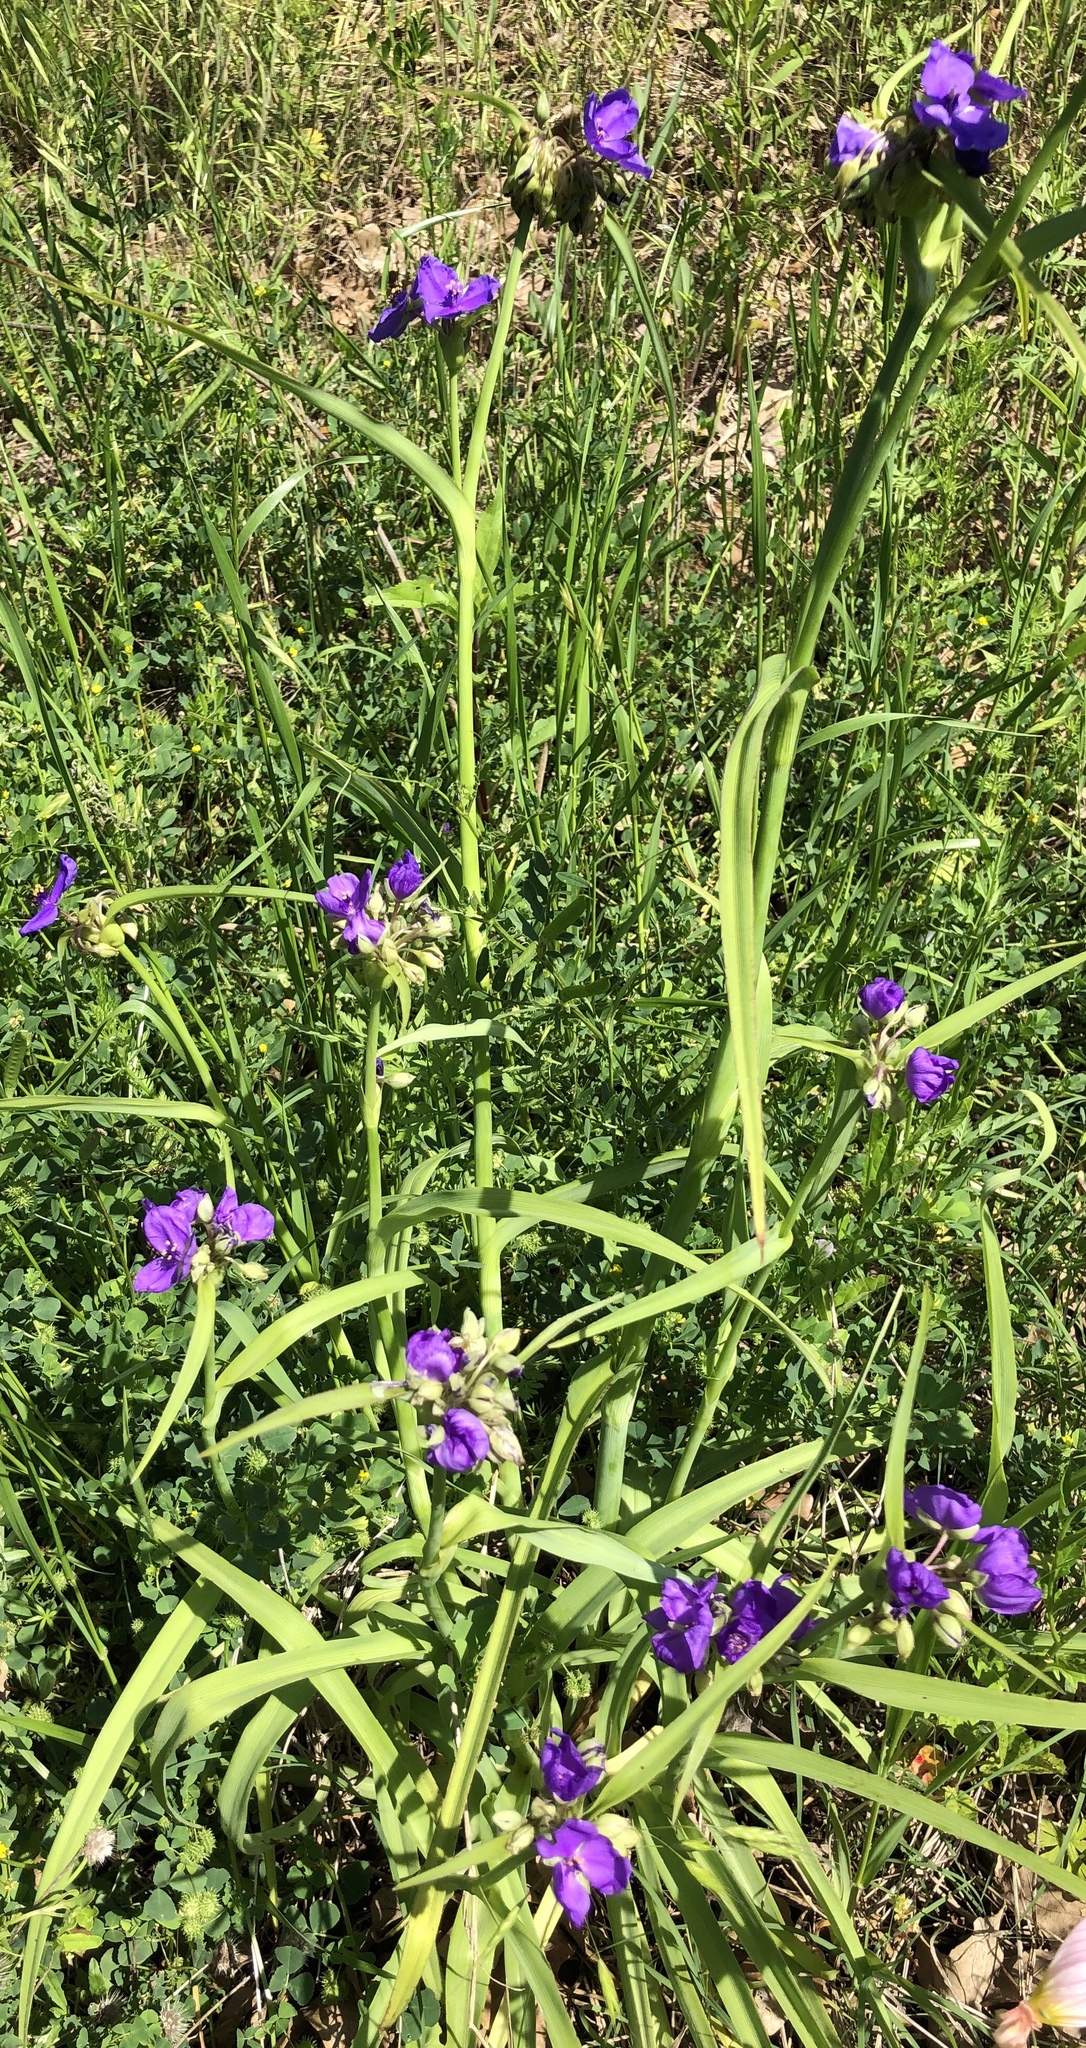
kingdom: Plantae
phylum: Tracheophyta
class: Liliopsida
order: Commelinales
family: Commelinaceae
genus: Tradescantia
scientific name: Tradescantia ohiensis
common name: Ohio spiderwort
